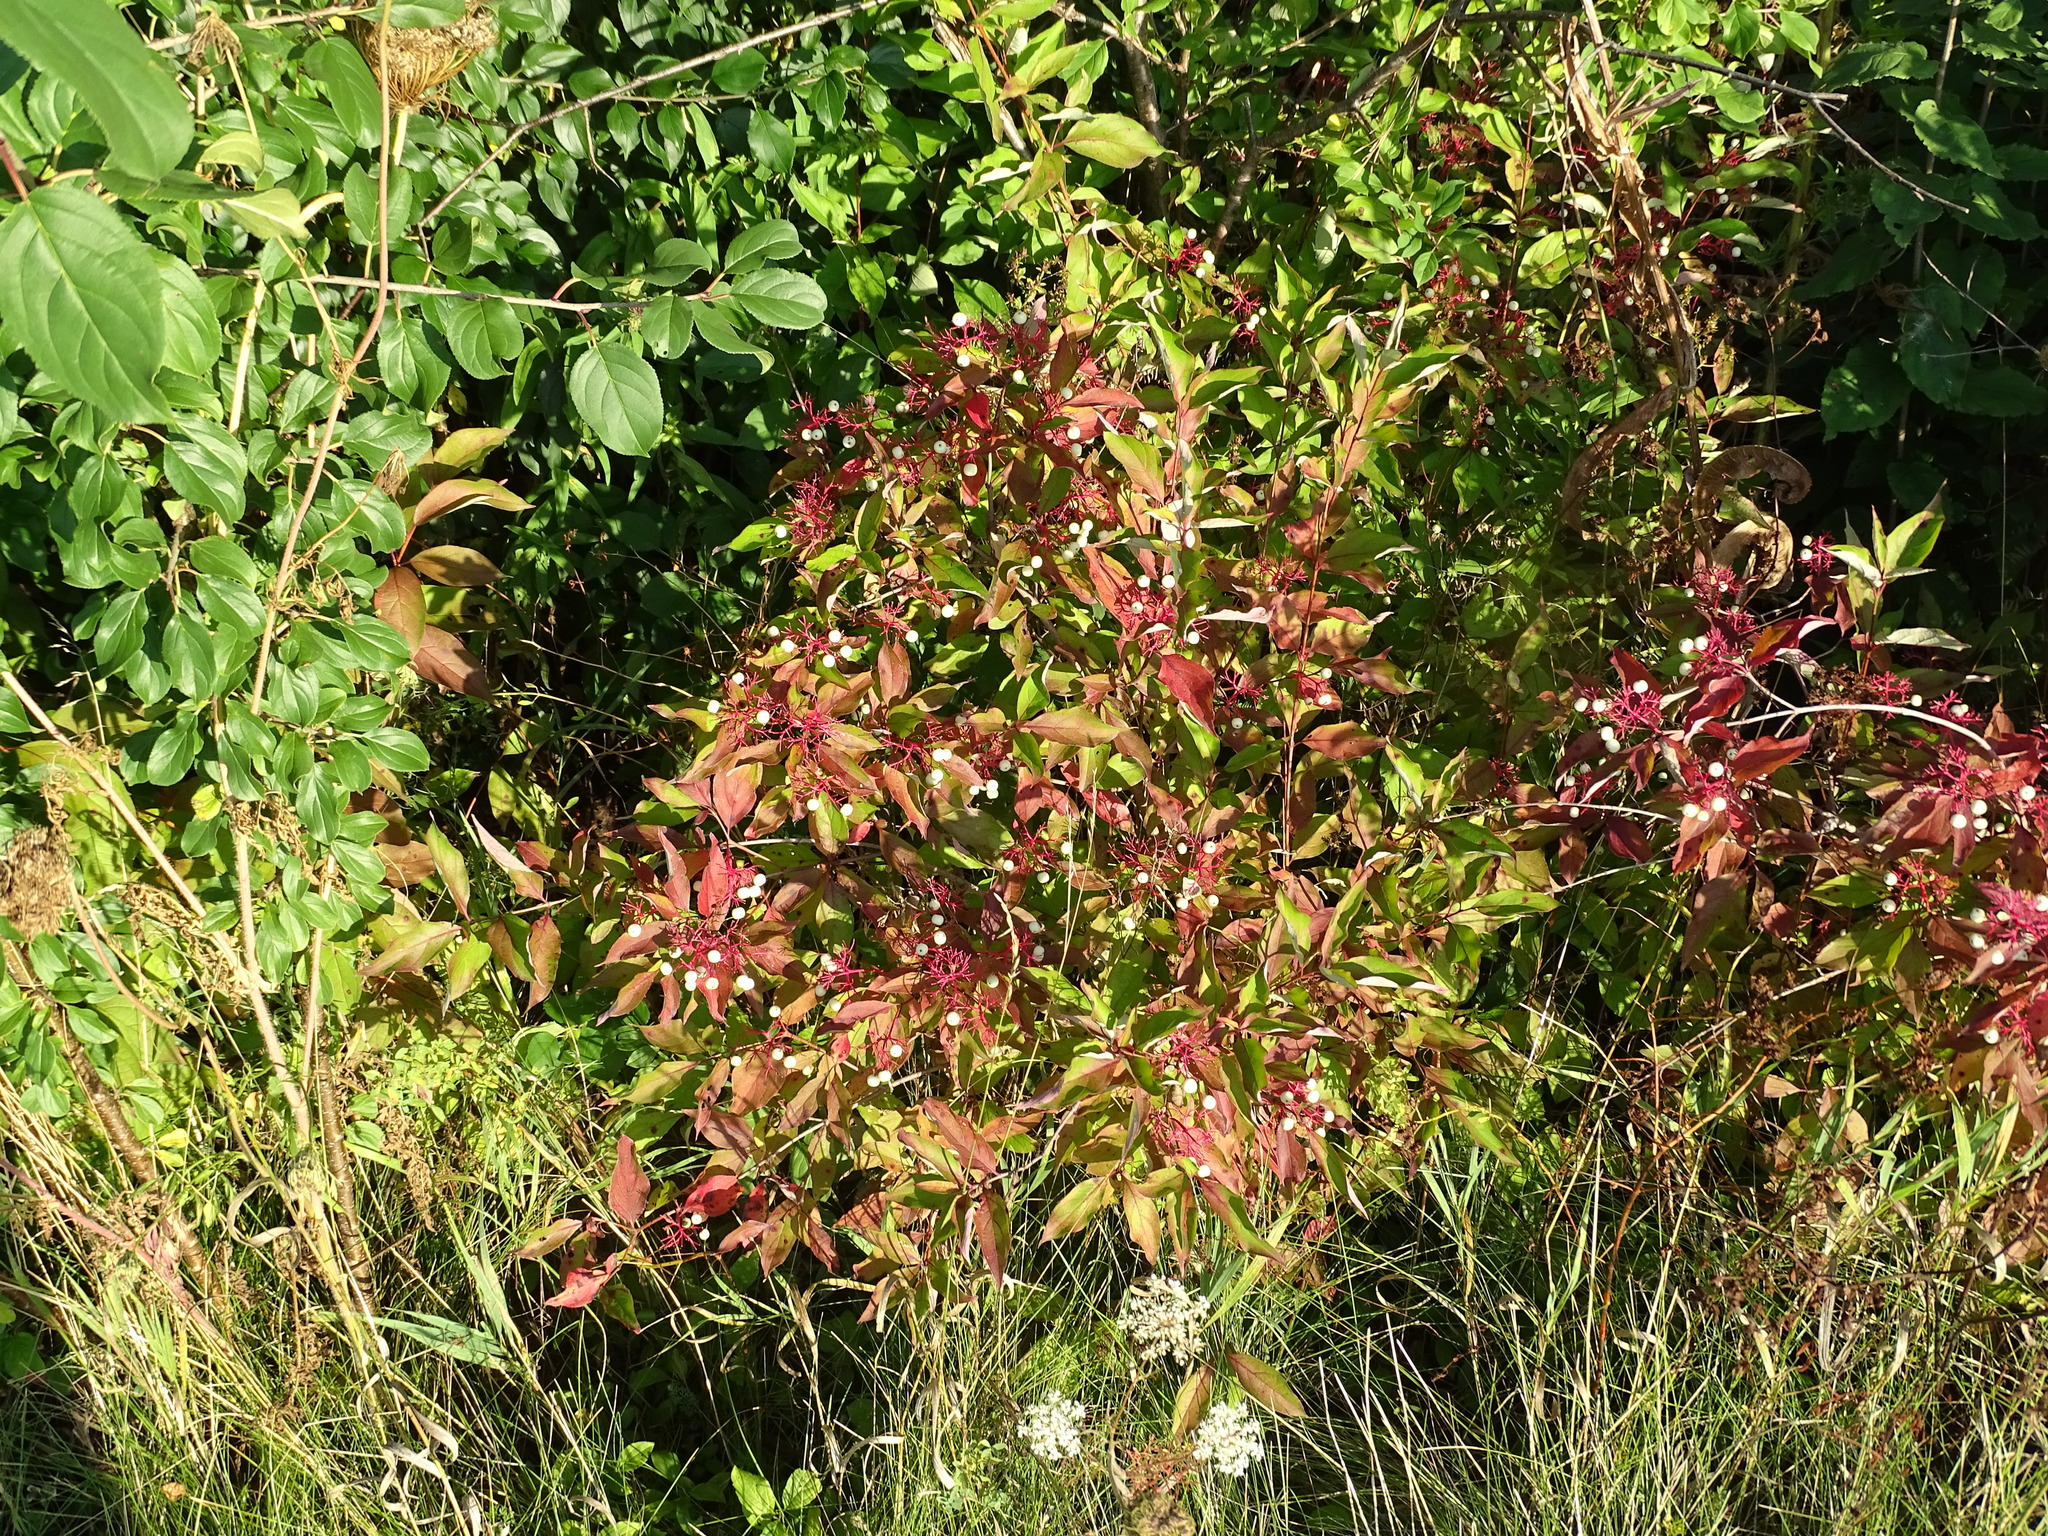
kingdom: Plantae
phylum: Tracheophyta
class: Magnoliopsida
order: Cornales
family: Cornaceae
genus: Cornus
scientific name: Cornus racemosa
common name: Panicled dogwood
